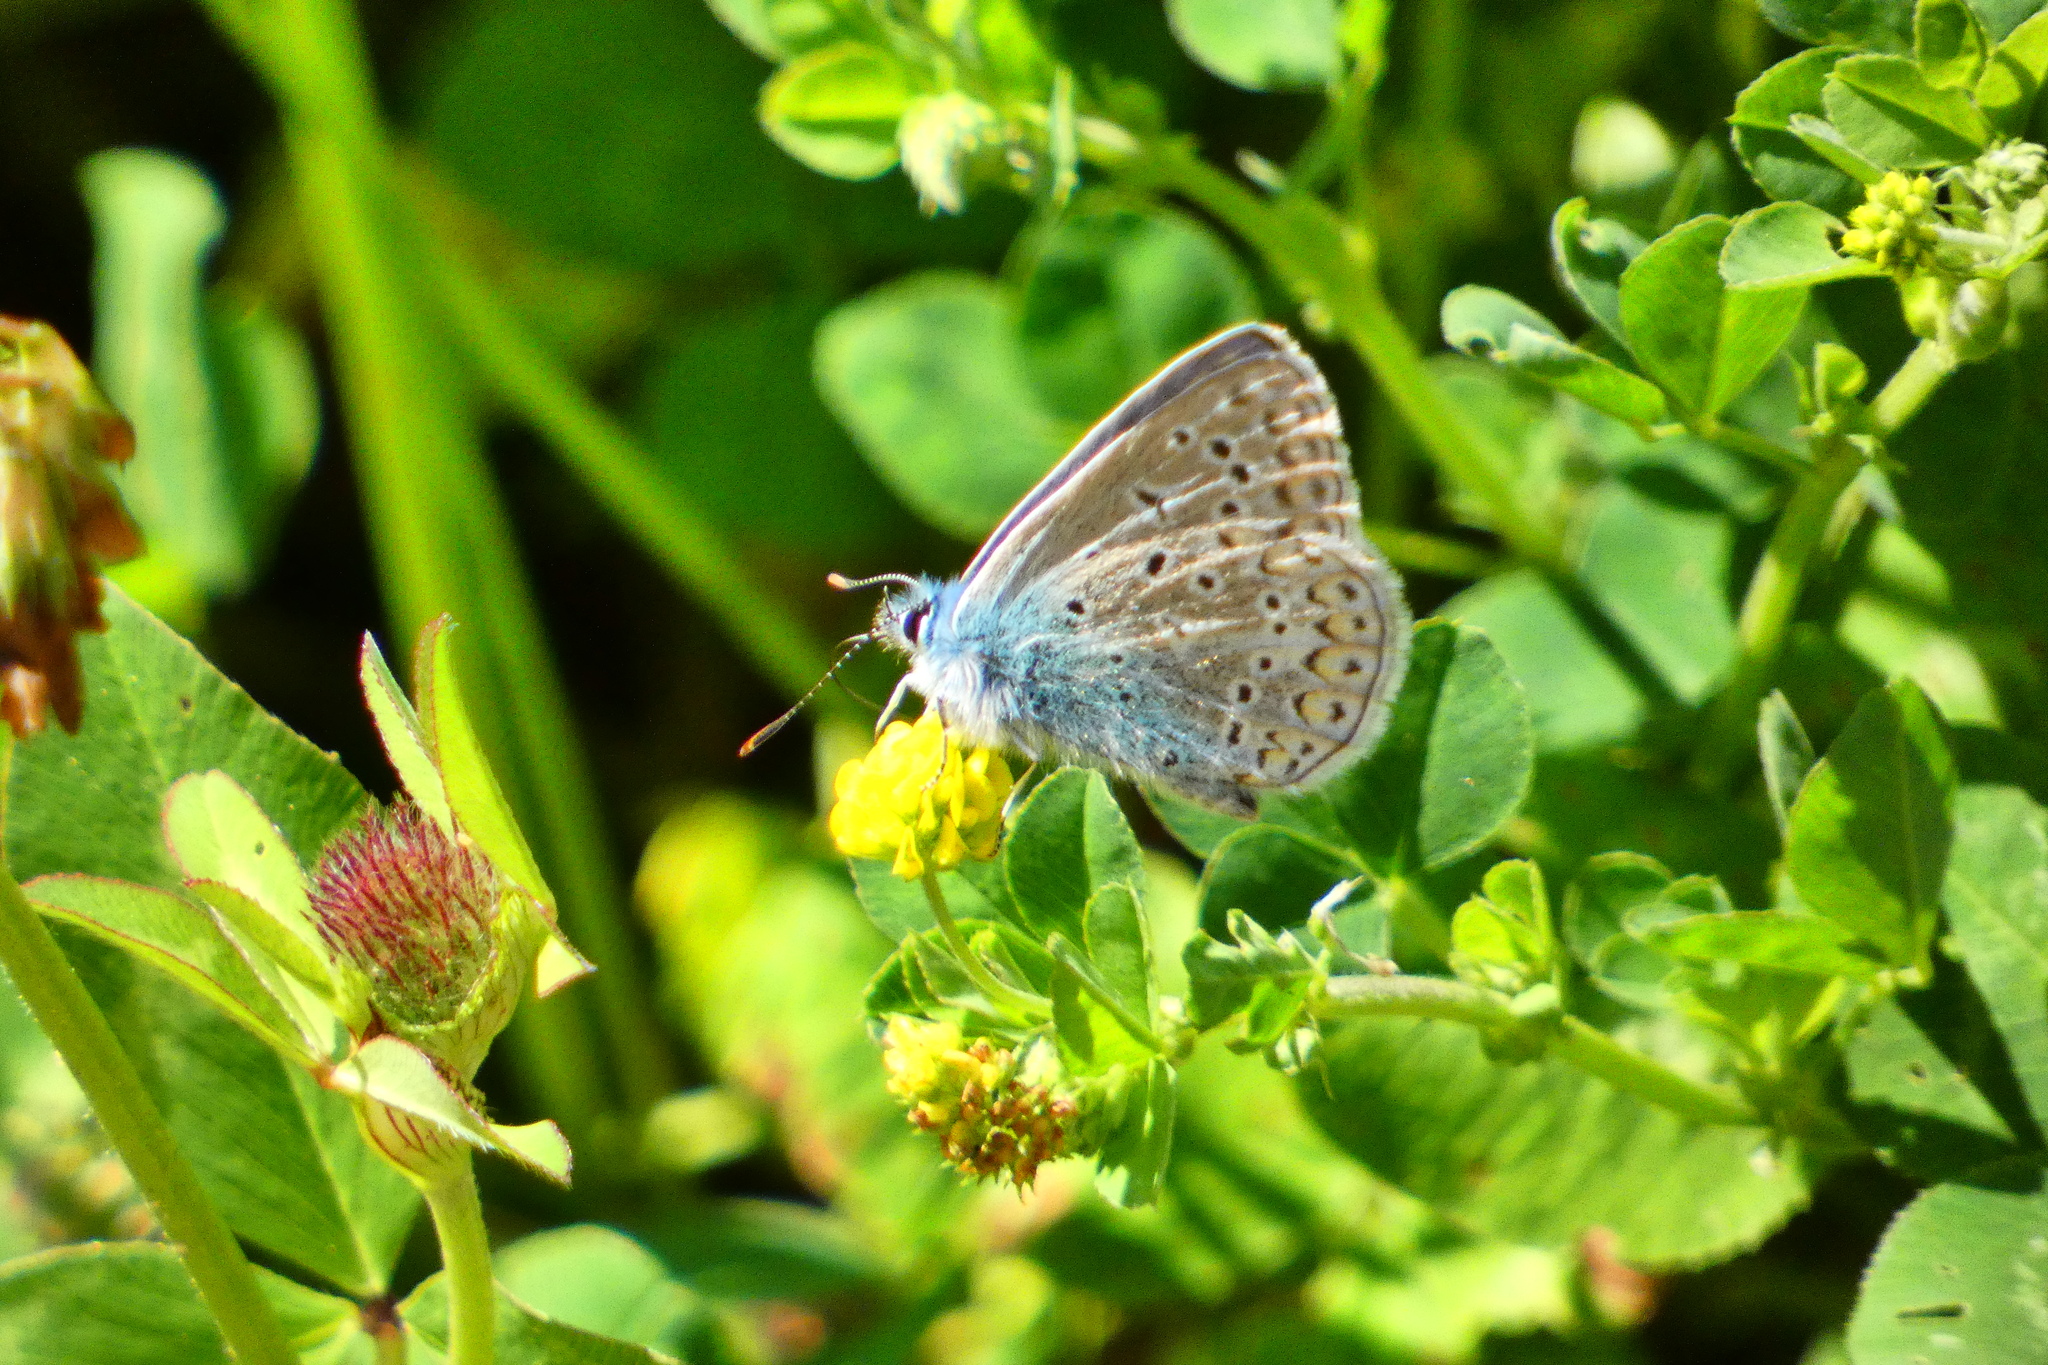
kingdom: Animalia
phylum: Arthropoda
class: Insecta
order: Lepidoptera
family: Lycaenidae
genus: Polyommatus
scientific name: Polyommatus icarus
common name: Common blue
